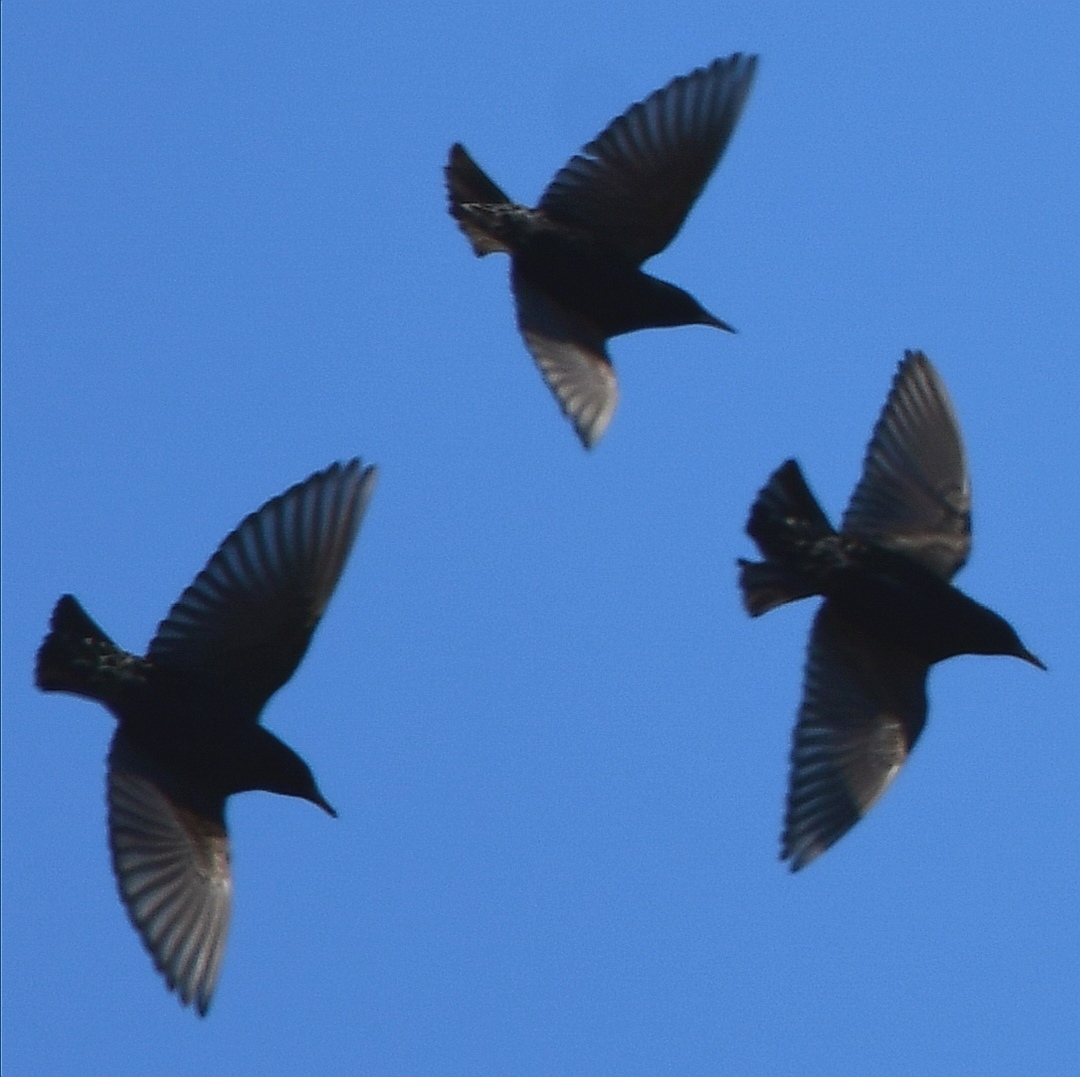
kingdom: Animalia
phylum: Chordata
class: Aves
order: Passeriformes
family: Sturnidae
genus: Sturnus
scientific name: Sturnus vulgaris
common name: Common starling
